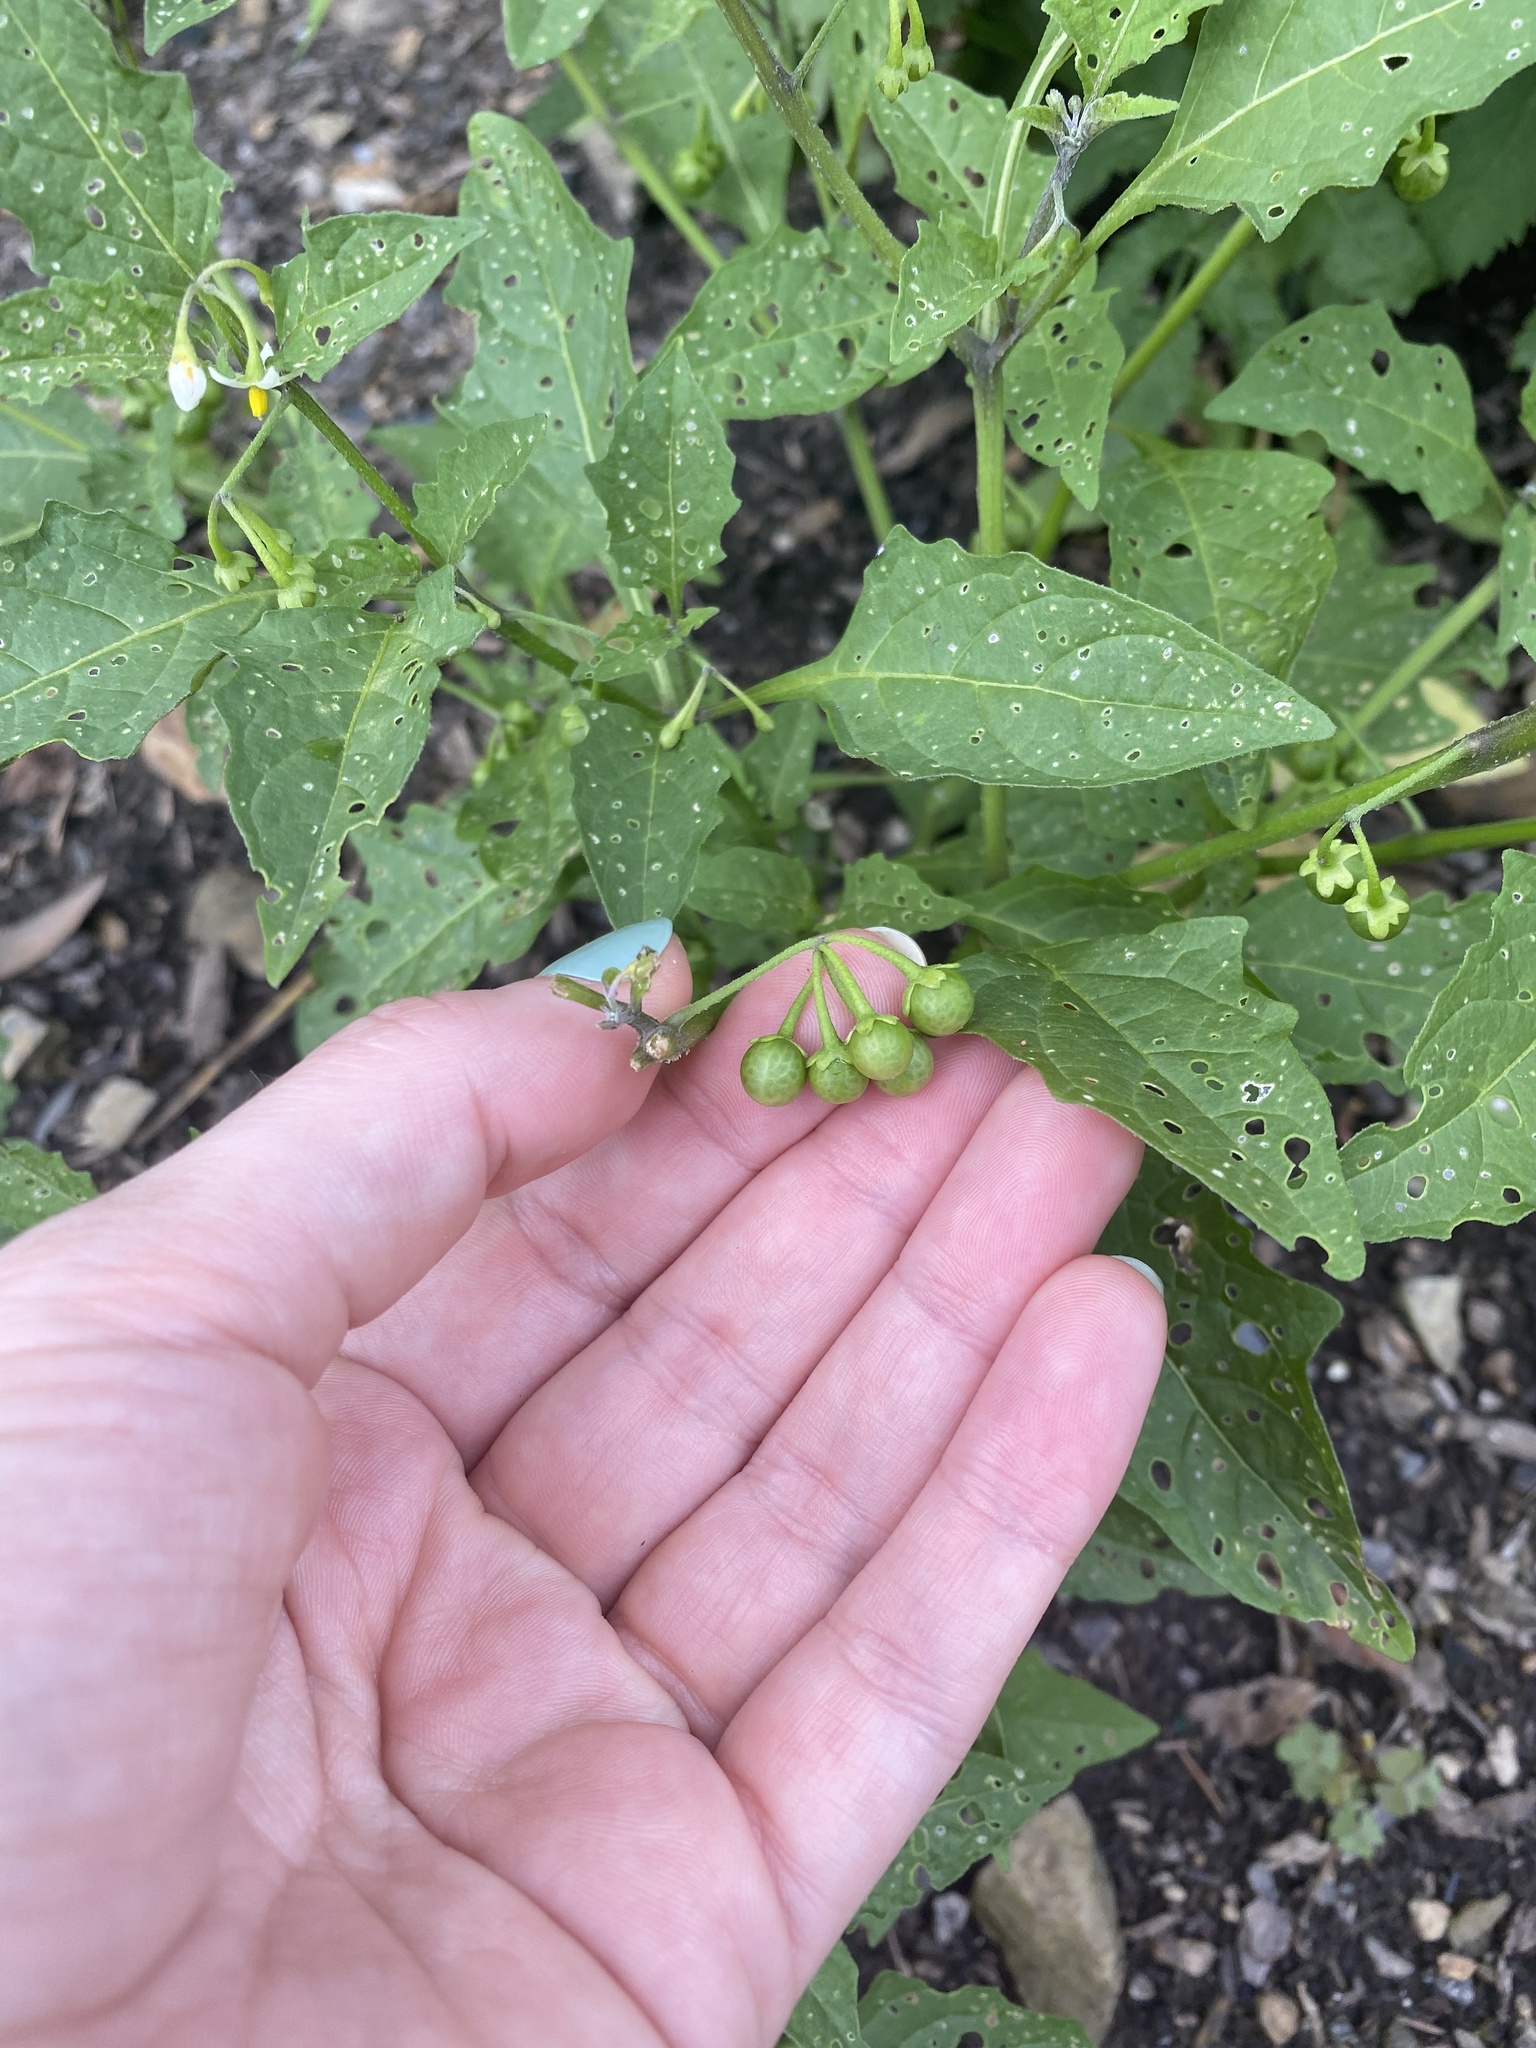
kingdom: Plantae
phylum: Tracheophyta
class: Magnoliopsida
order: Solanales
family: Solanaceae
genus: Solanum
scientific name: Solanum emulans
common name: Eastern black nightshade
